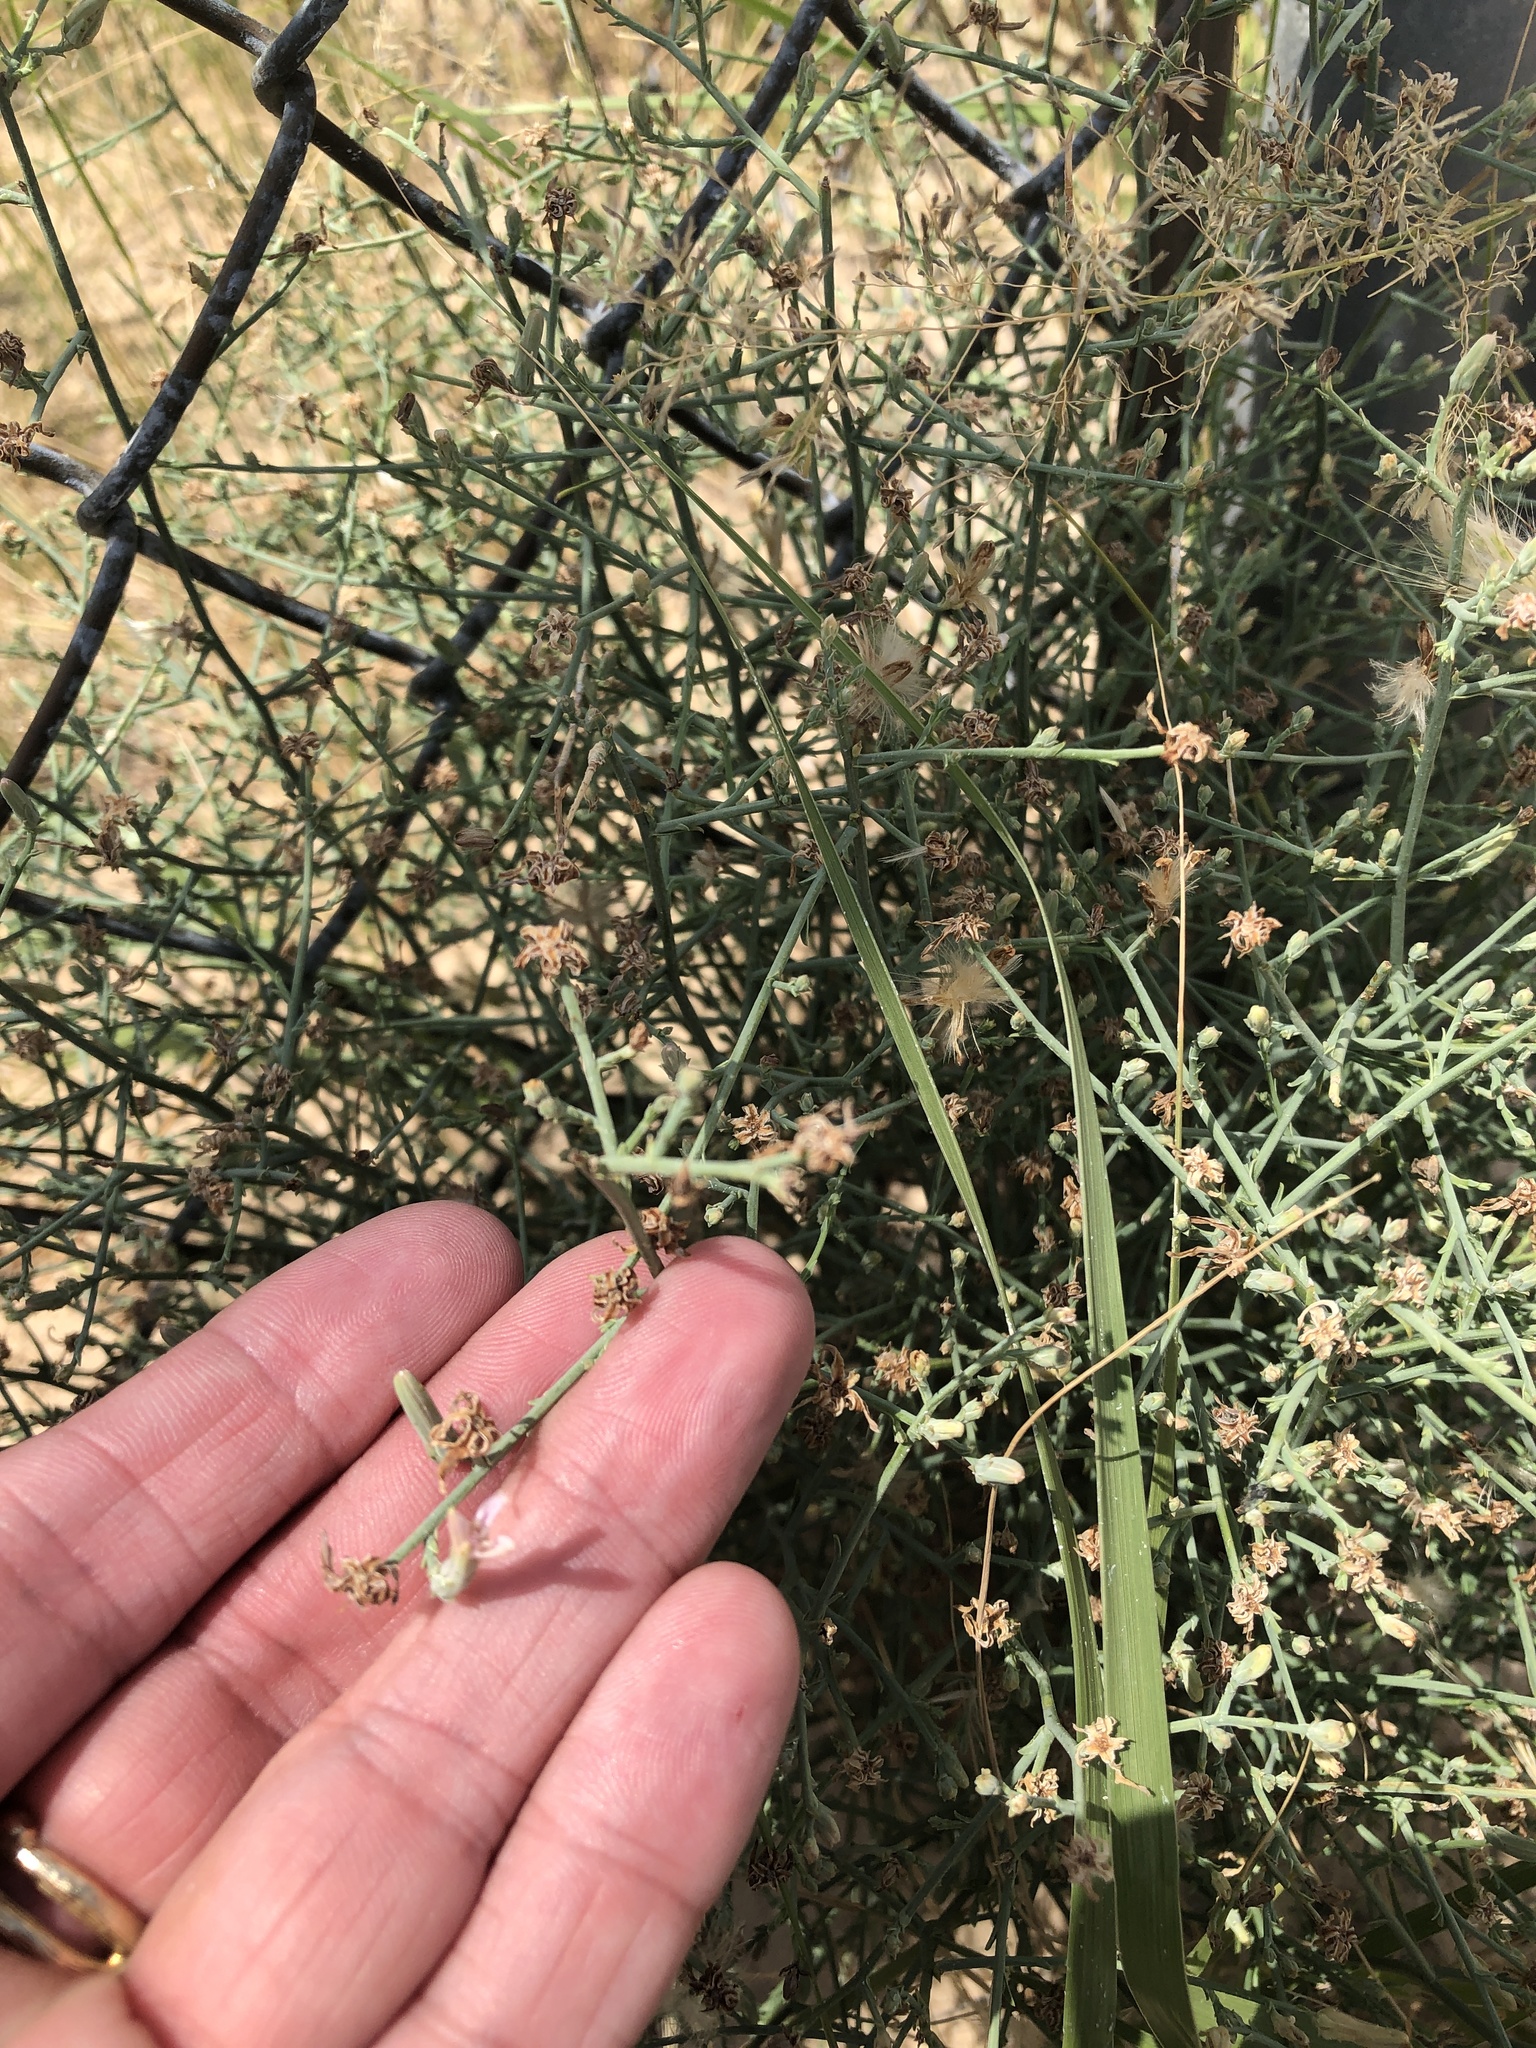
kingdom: Plantae
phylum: Tracheophyta
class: Magnoliopsida
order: Asterales
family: Asteraceae
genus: Stephanomeria
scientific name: Stephanomeria pauciflora
